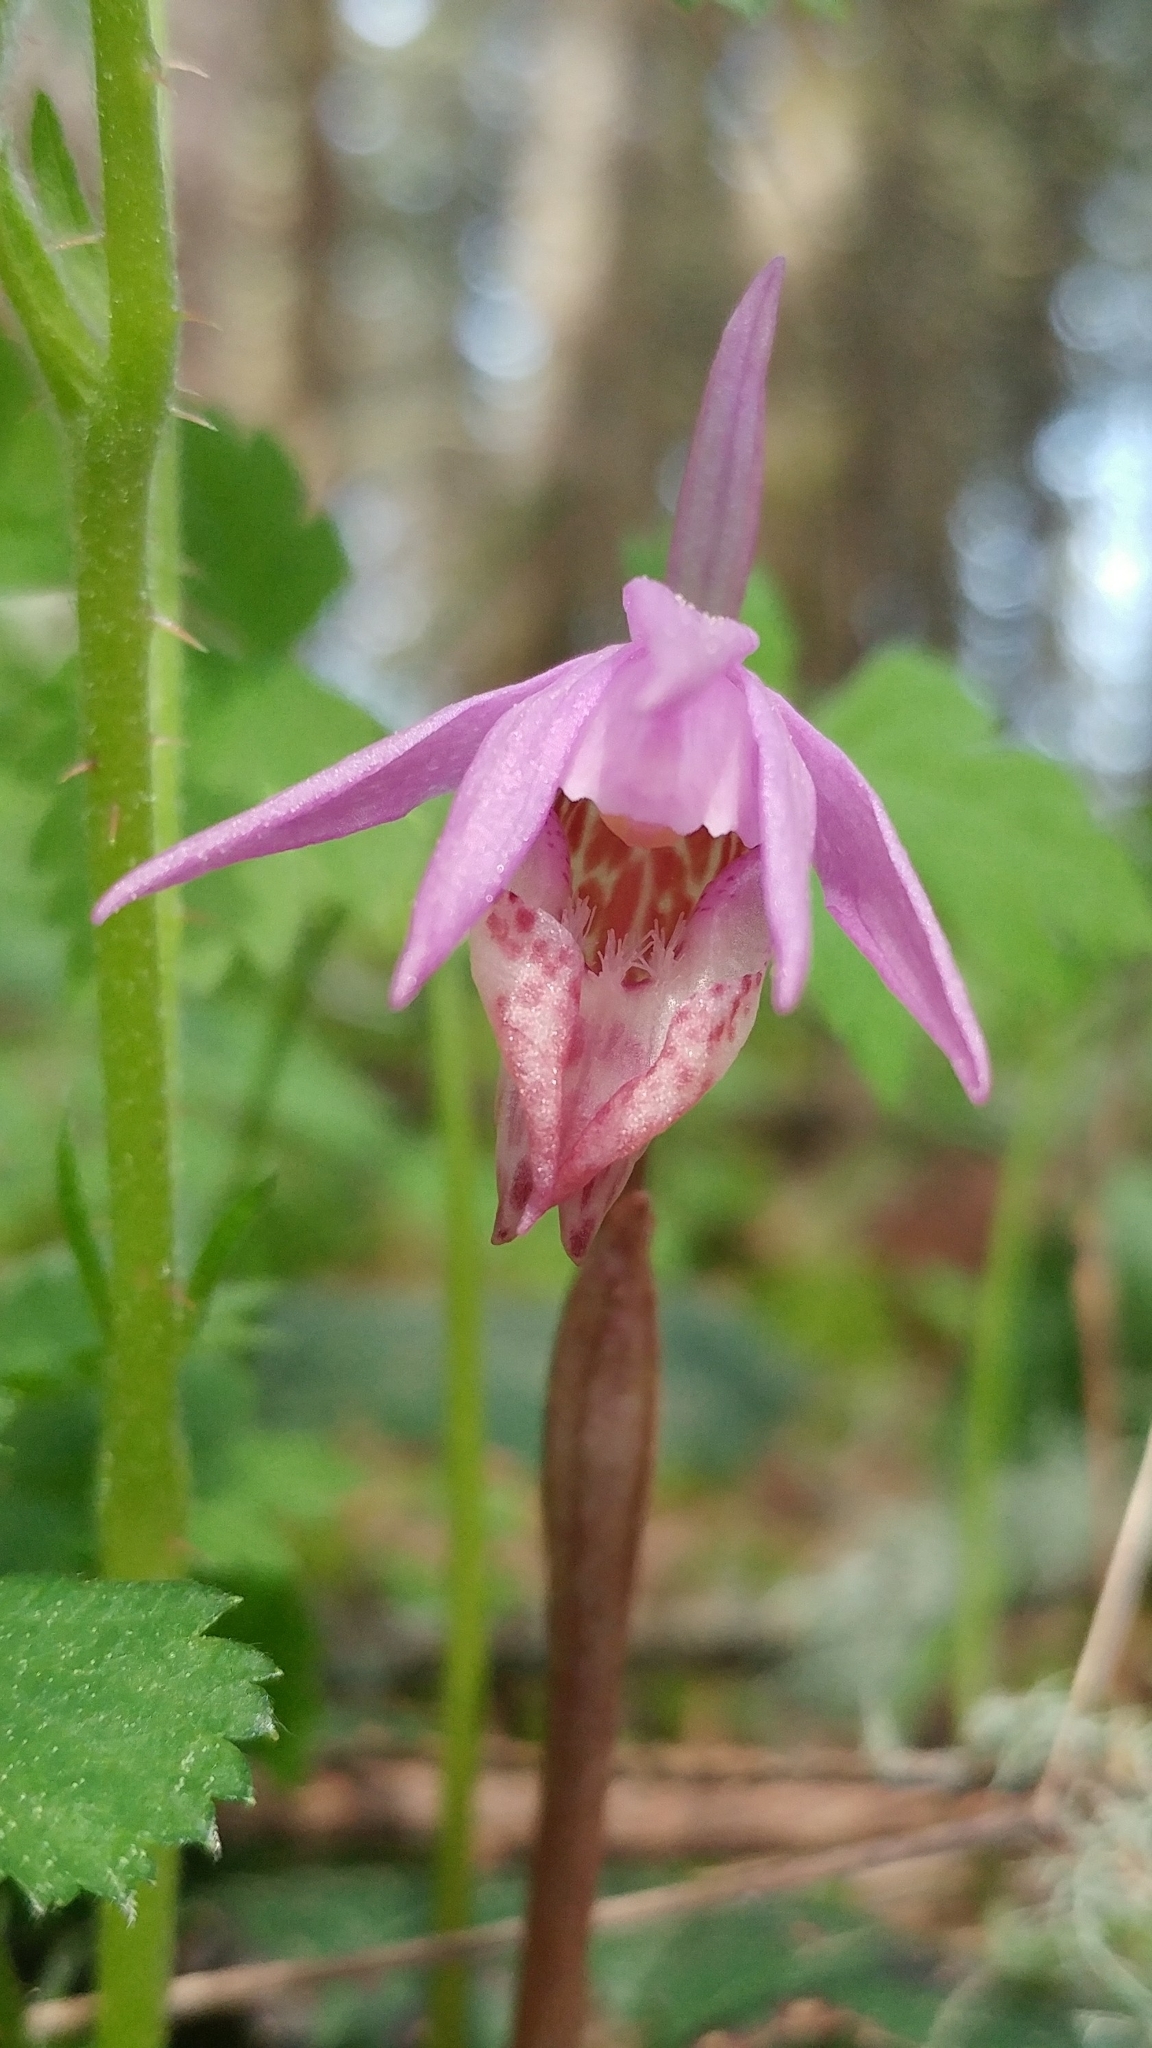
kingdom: Plantae
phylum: Tracheophyta
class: Liliopsida
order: Asparagales
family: Orchidaceae
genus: Calypso
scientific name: Calypso bulbosa
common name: Calypso
